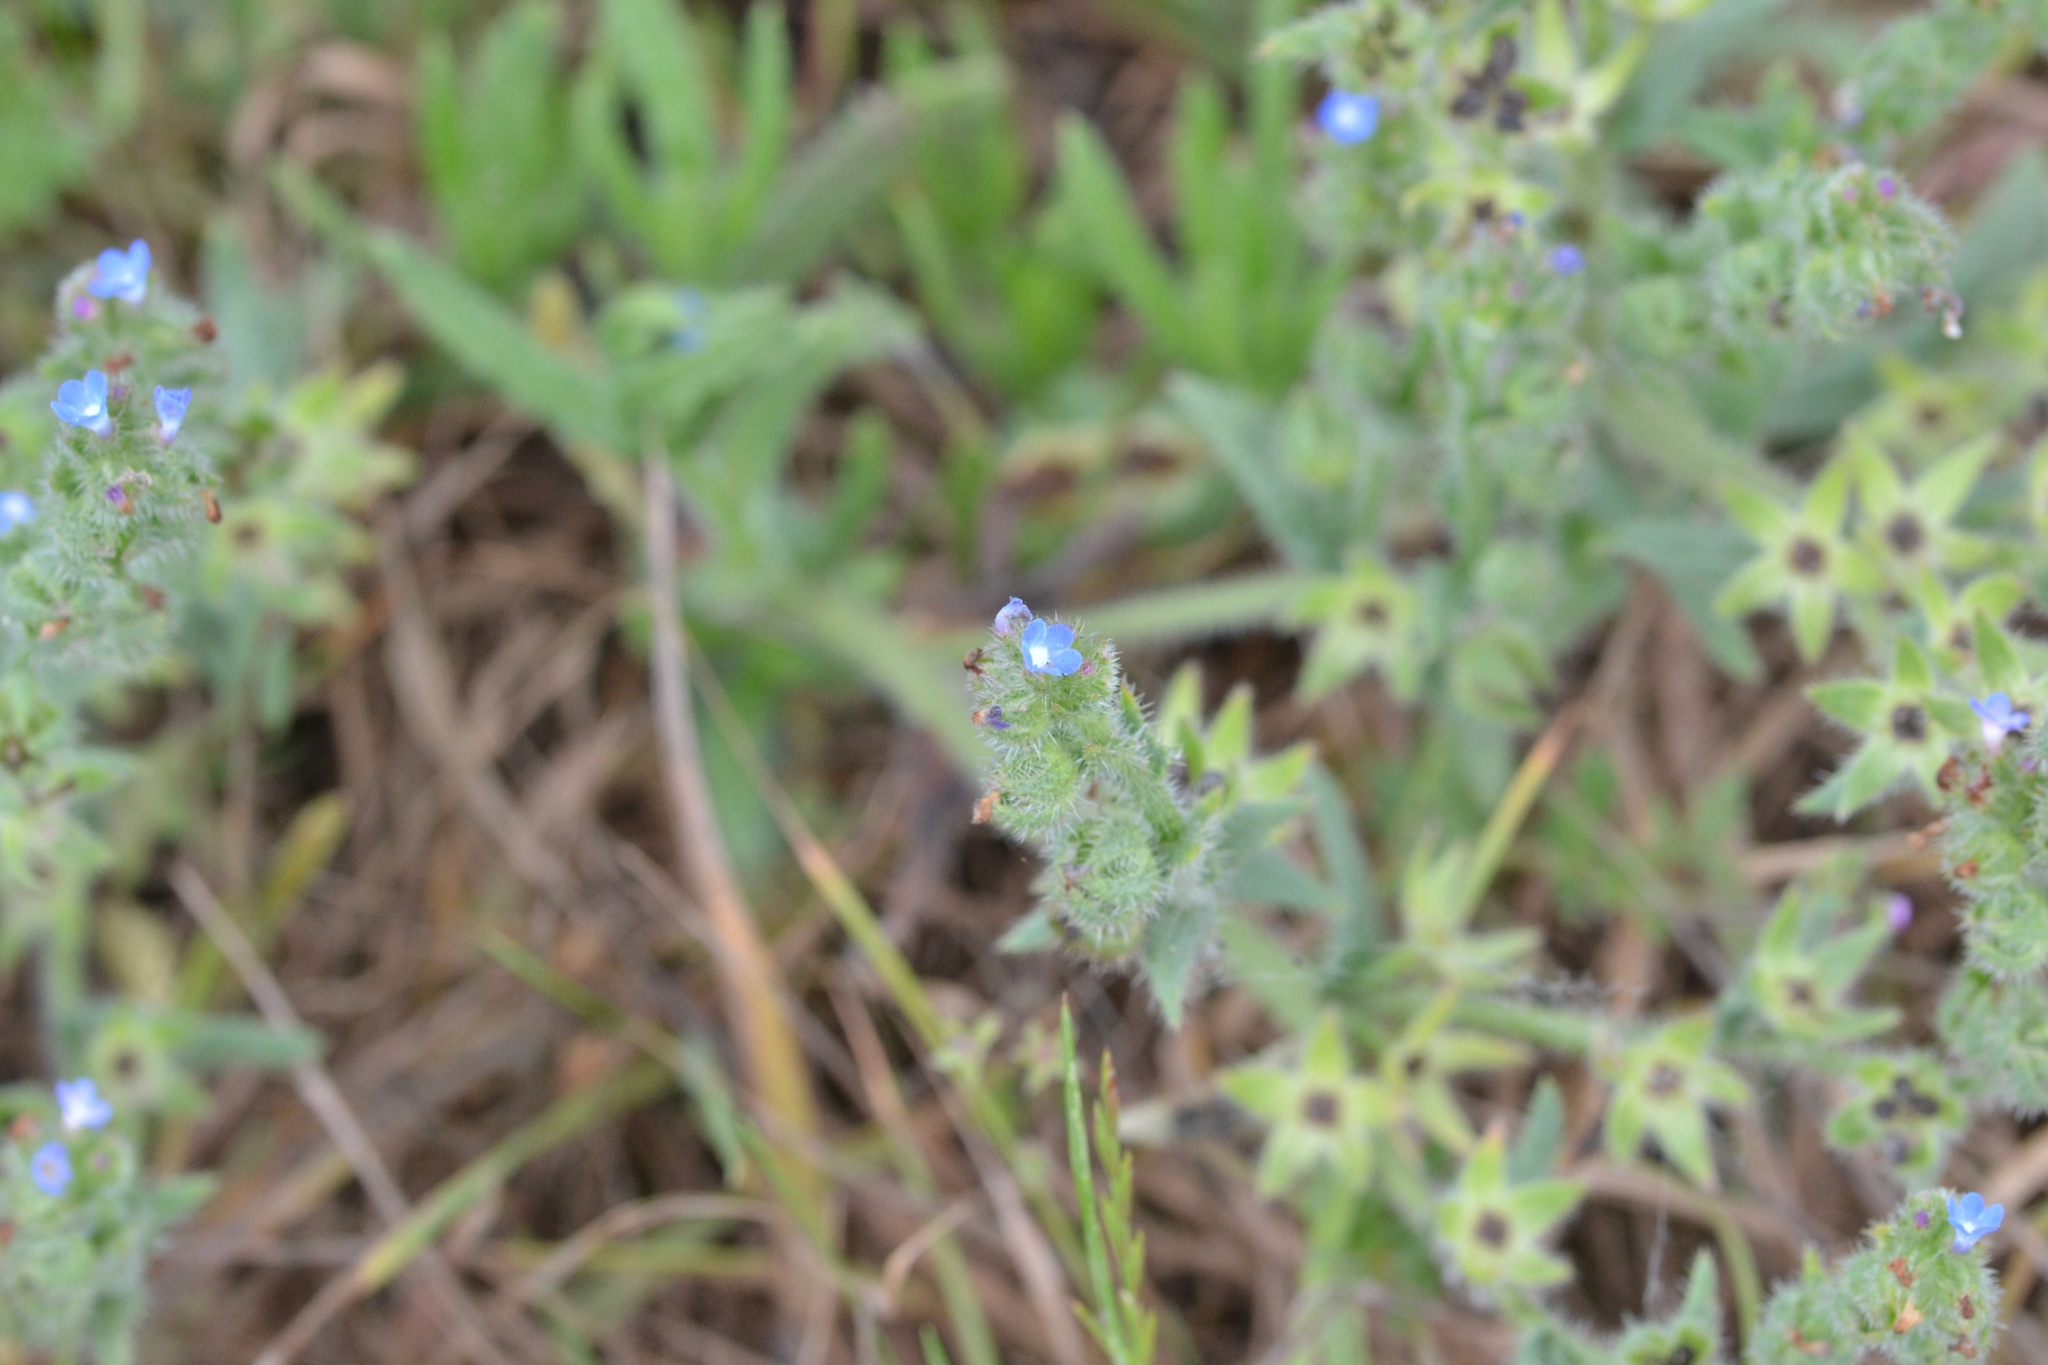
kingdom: Plantae
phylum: Tracheophyta
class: Magnoliopsida
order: Boraginales
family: Boraginaceae
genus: Lycopsis
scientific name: Lycopsis arvensis
